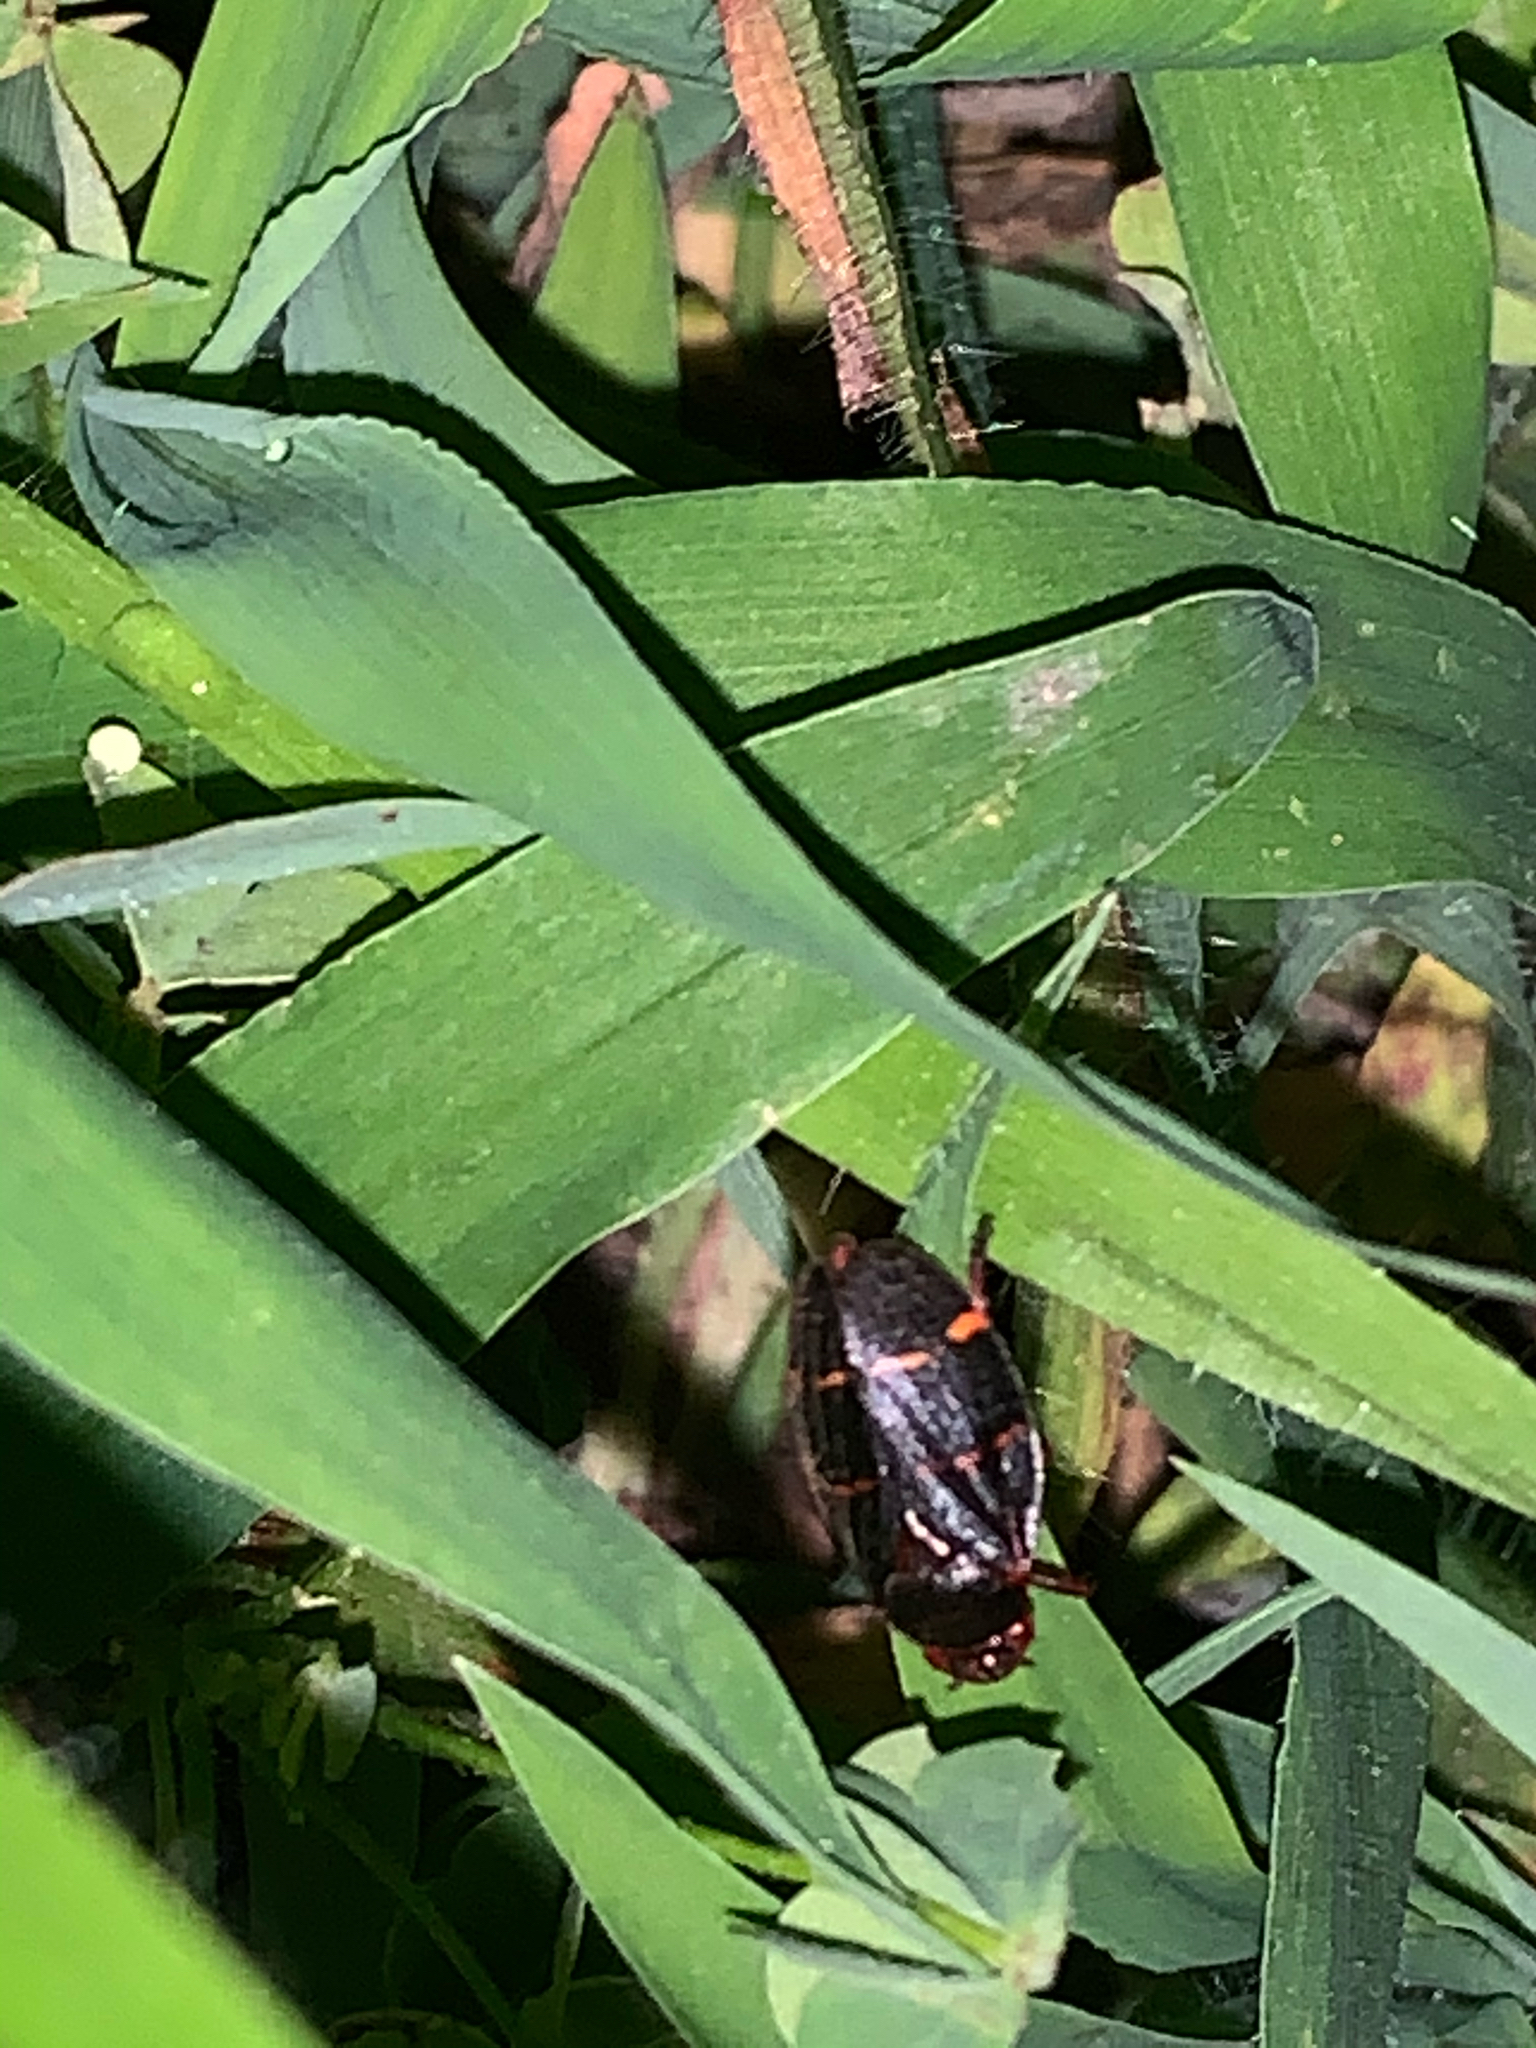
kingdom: Animalia
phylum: Arthropoda
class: Insecta
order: Hemiptera
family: Cercopidae
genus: Prosapia
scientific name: Prosapia bicincta
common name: Twolined spittlebug
